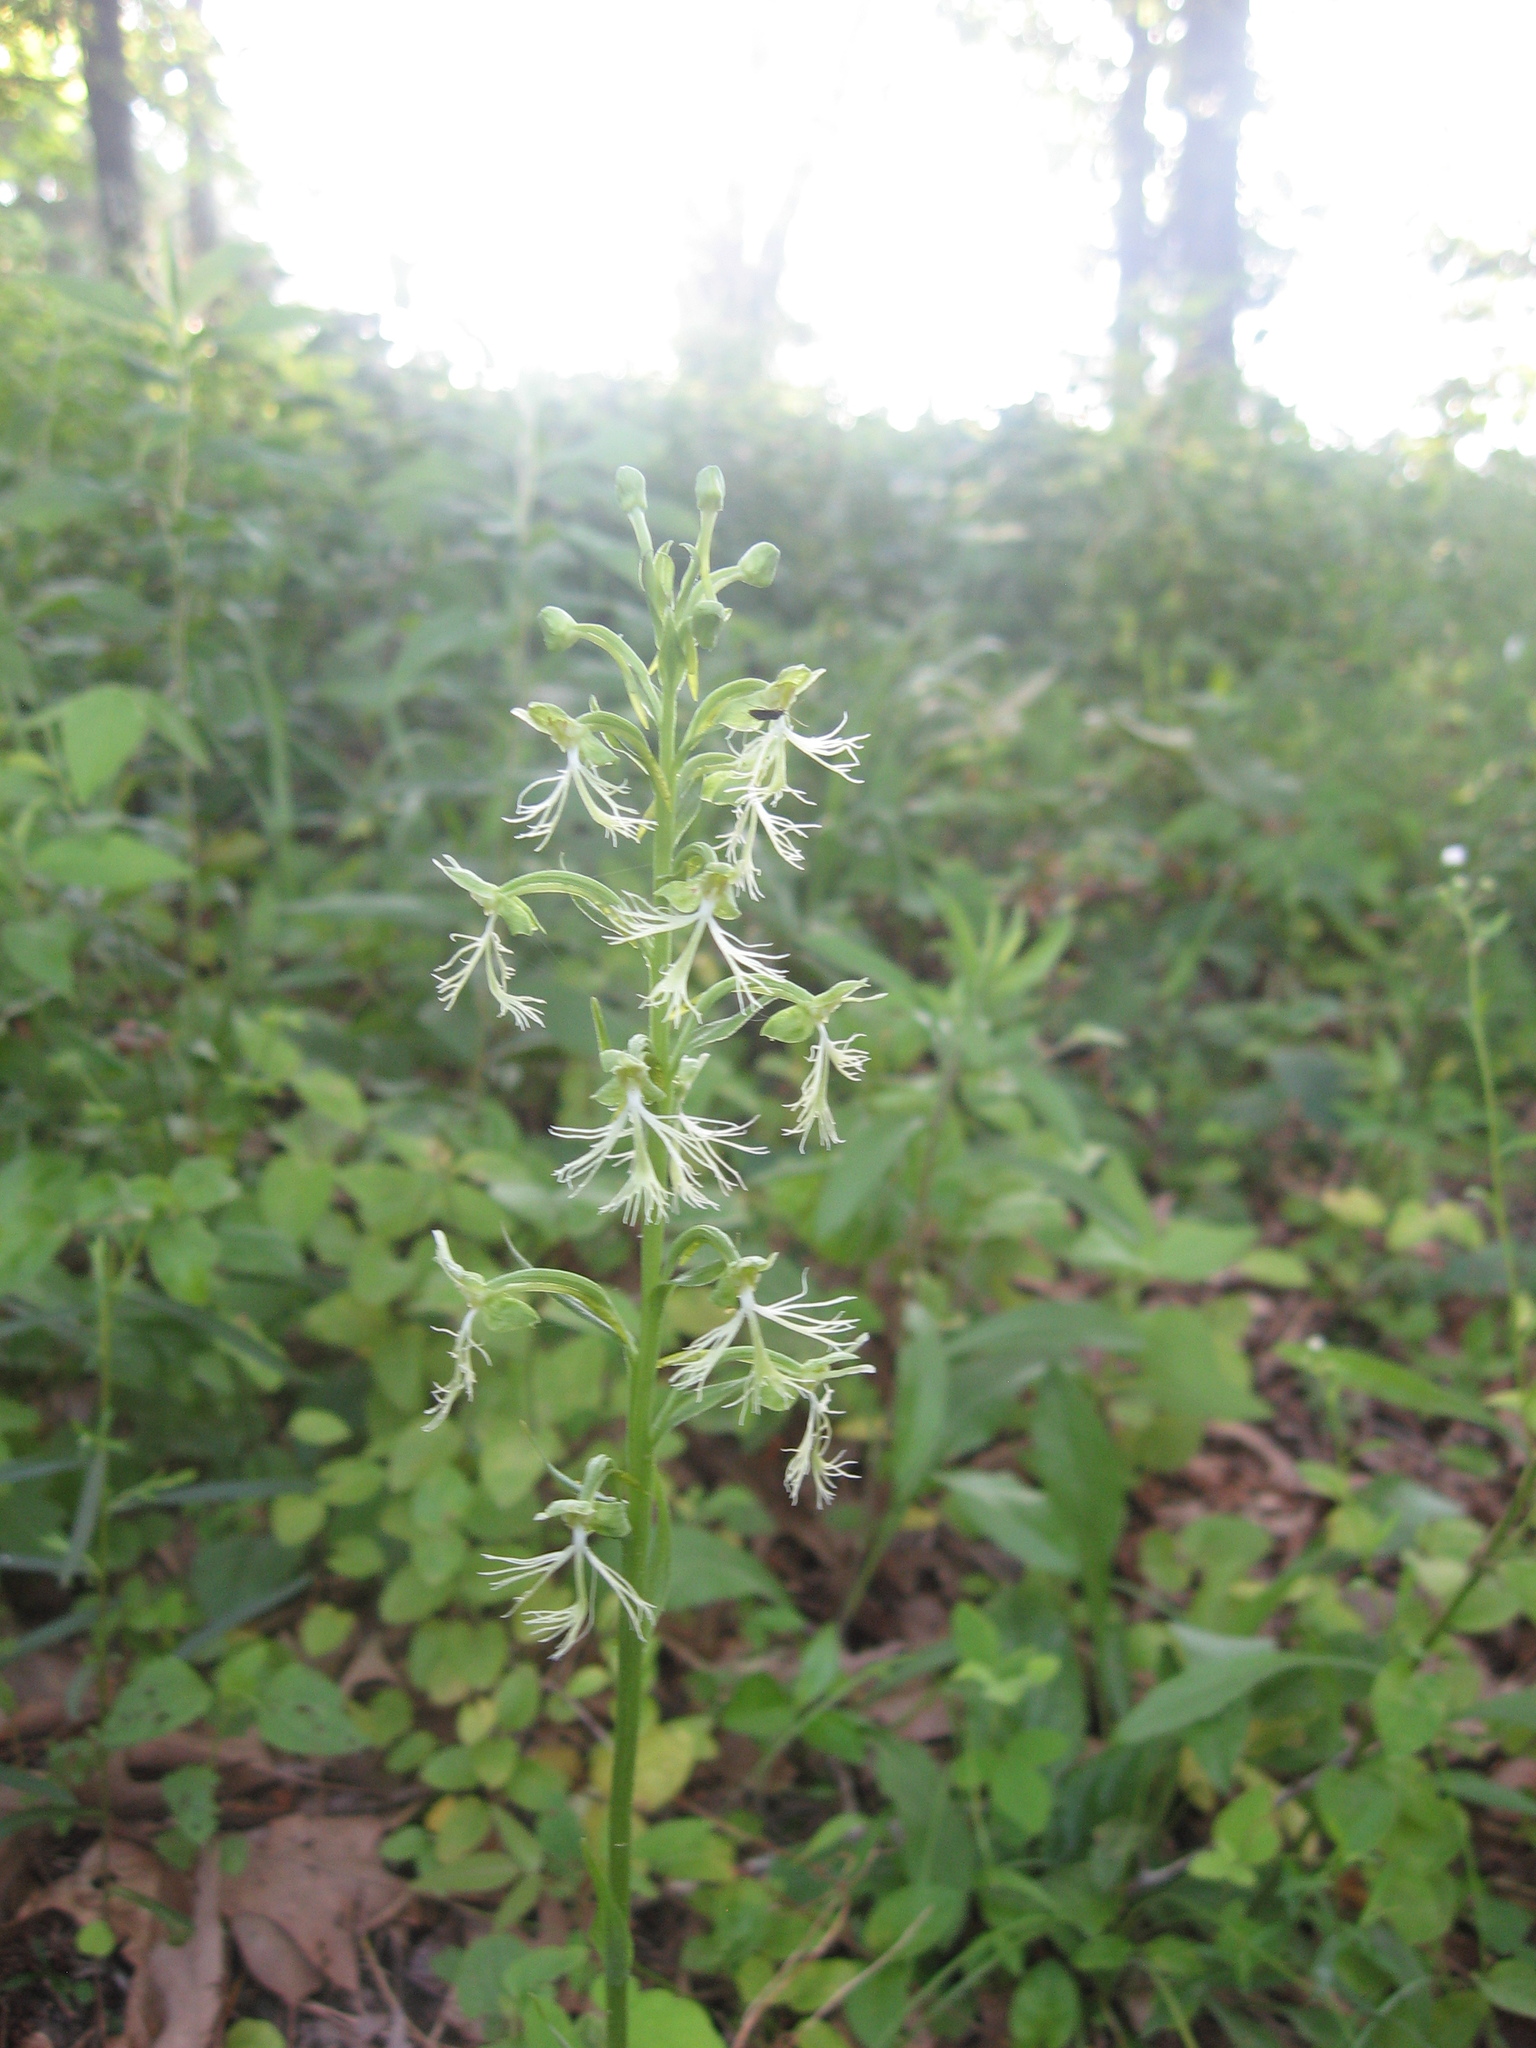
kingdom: Plantae
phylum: Tracheophyta
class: Liliopsida
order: Asparagales
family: Orchidaceae
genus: Platanthera
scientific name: Platanthera lacera
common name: Green fringed orchid
